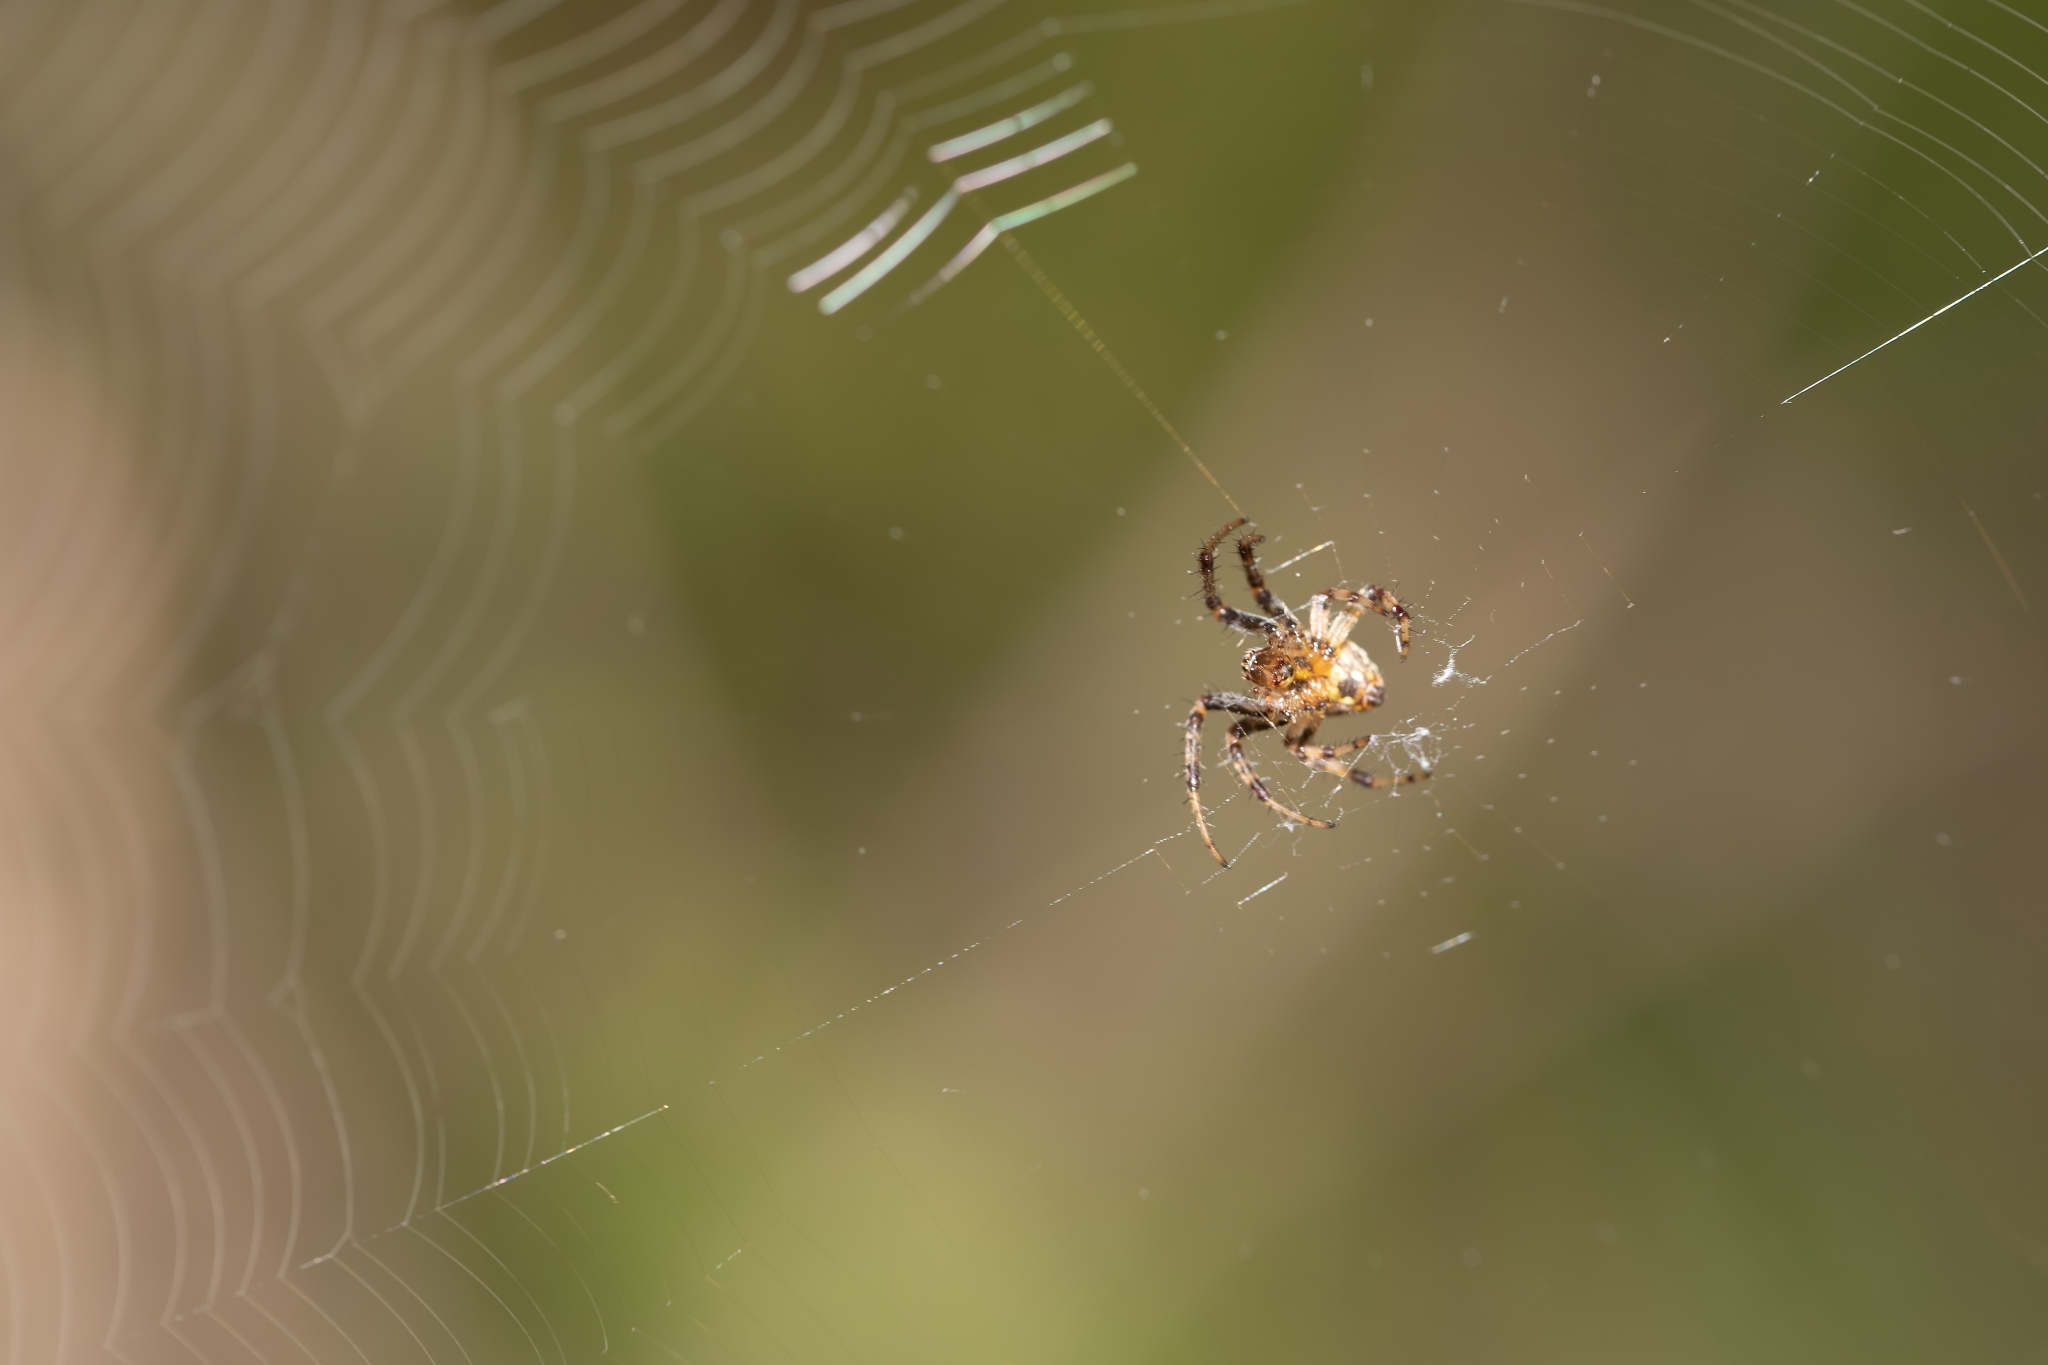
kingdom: Animalia
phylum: Arthropoda
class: Arachnida
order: Araneae
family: Araneidae
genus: Neoscona
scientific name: Neoscona arabesca
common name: Orb weavers
